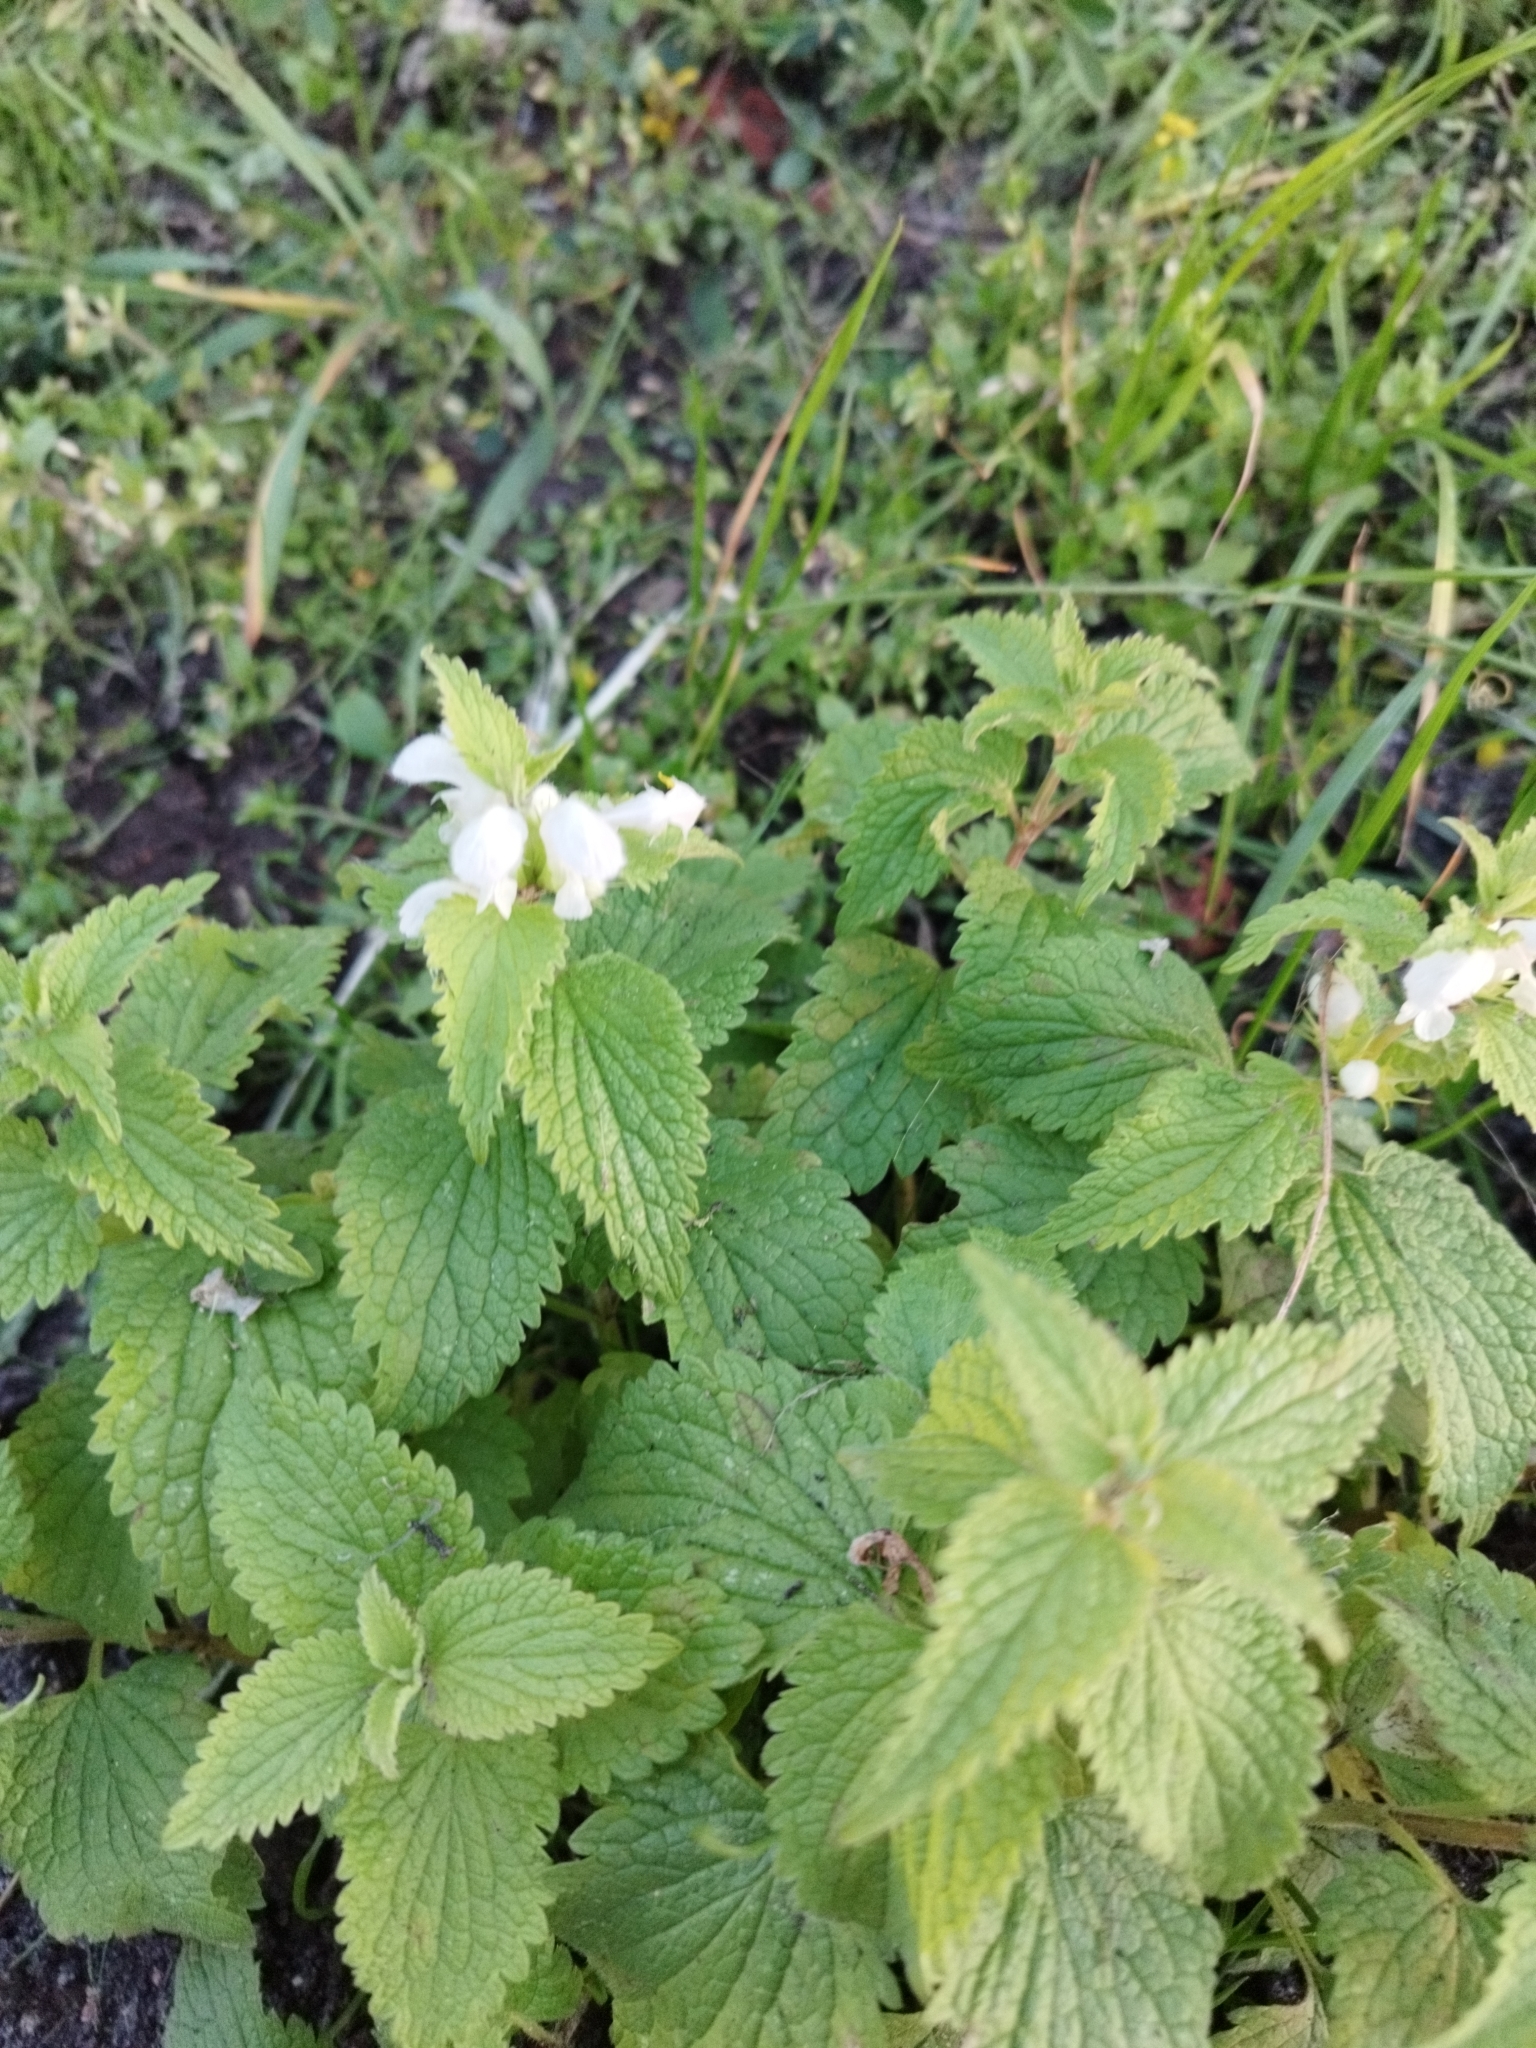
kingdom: Plantae
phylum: Tracheophyta
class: Magnoliopsida
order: Lamiales
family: Lamiaceae
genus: Lamium
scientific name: Lamium album
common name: White dead-nettle
